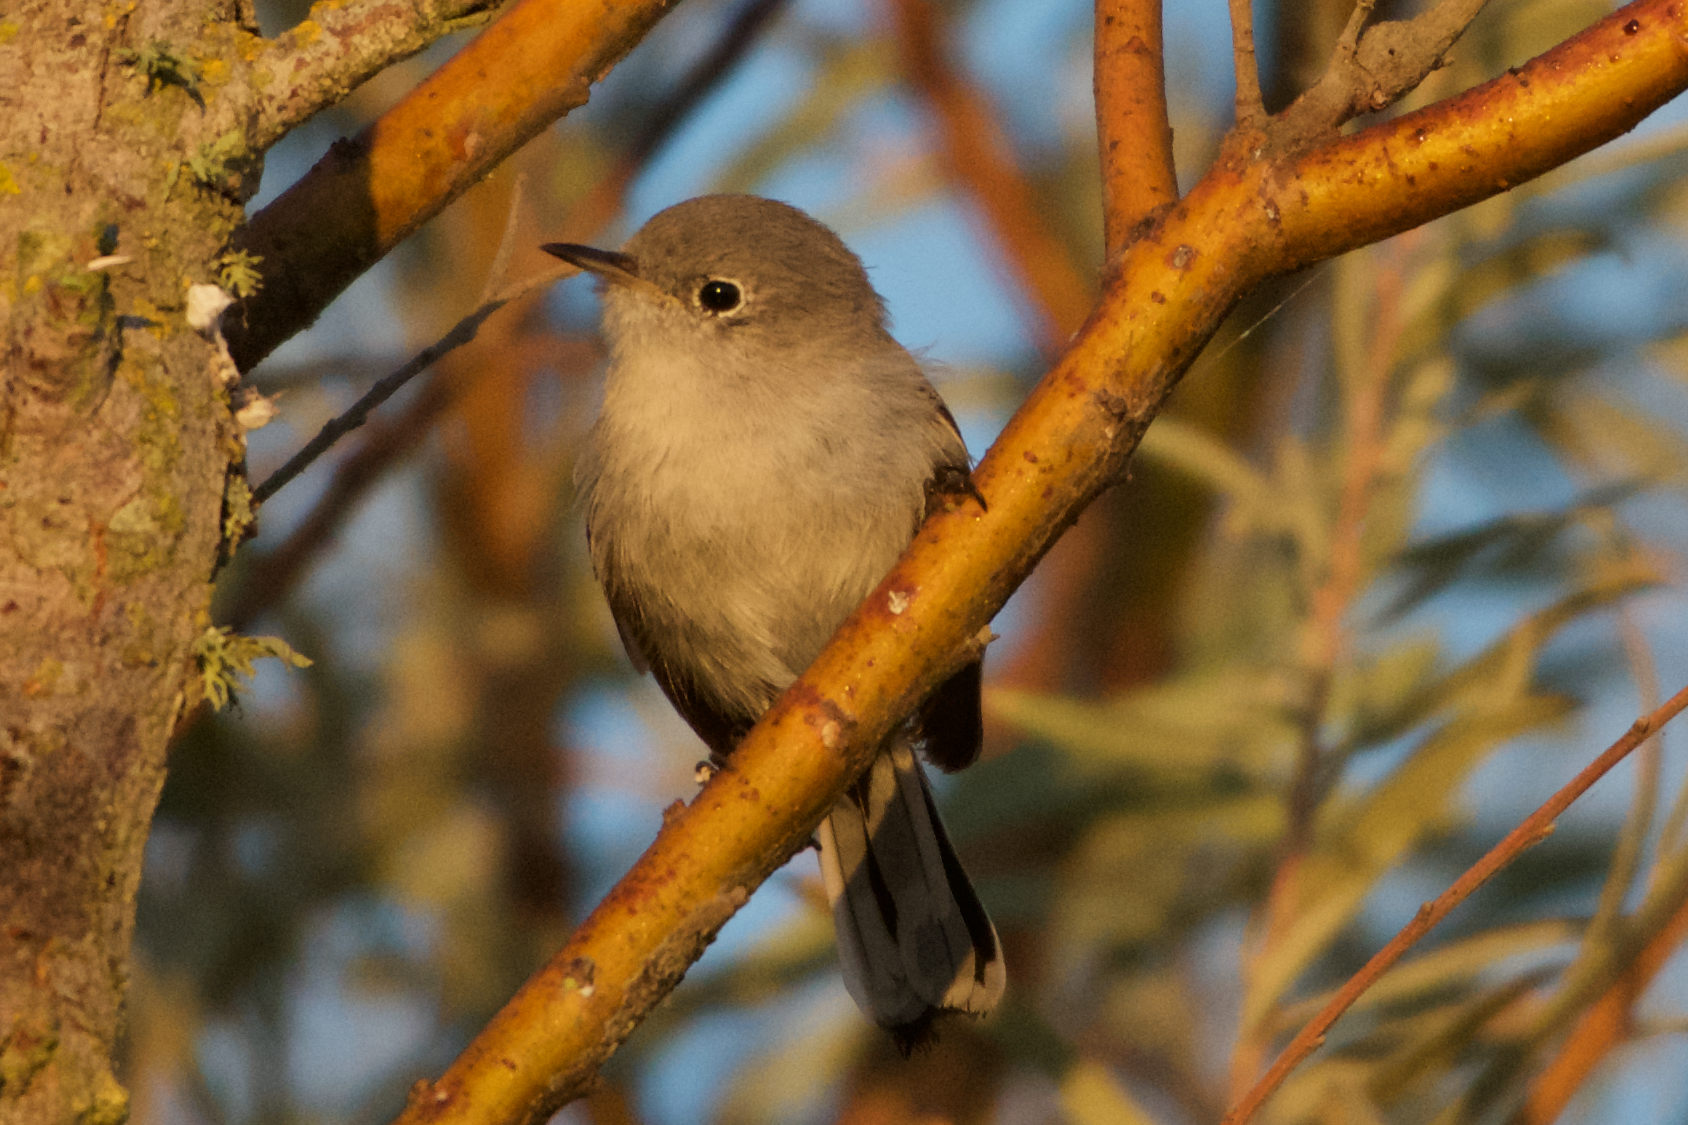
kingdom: Animalia
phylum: Chordata
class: Aves
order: Passeriformes
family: Polioptilidae
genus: Polioptila
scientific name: Polioptila caerulea
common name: Blue-gray gnatcatcher
